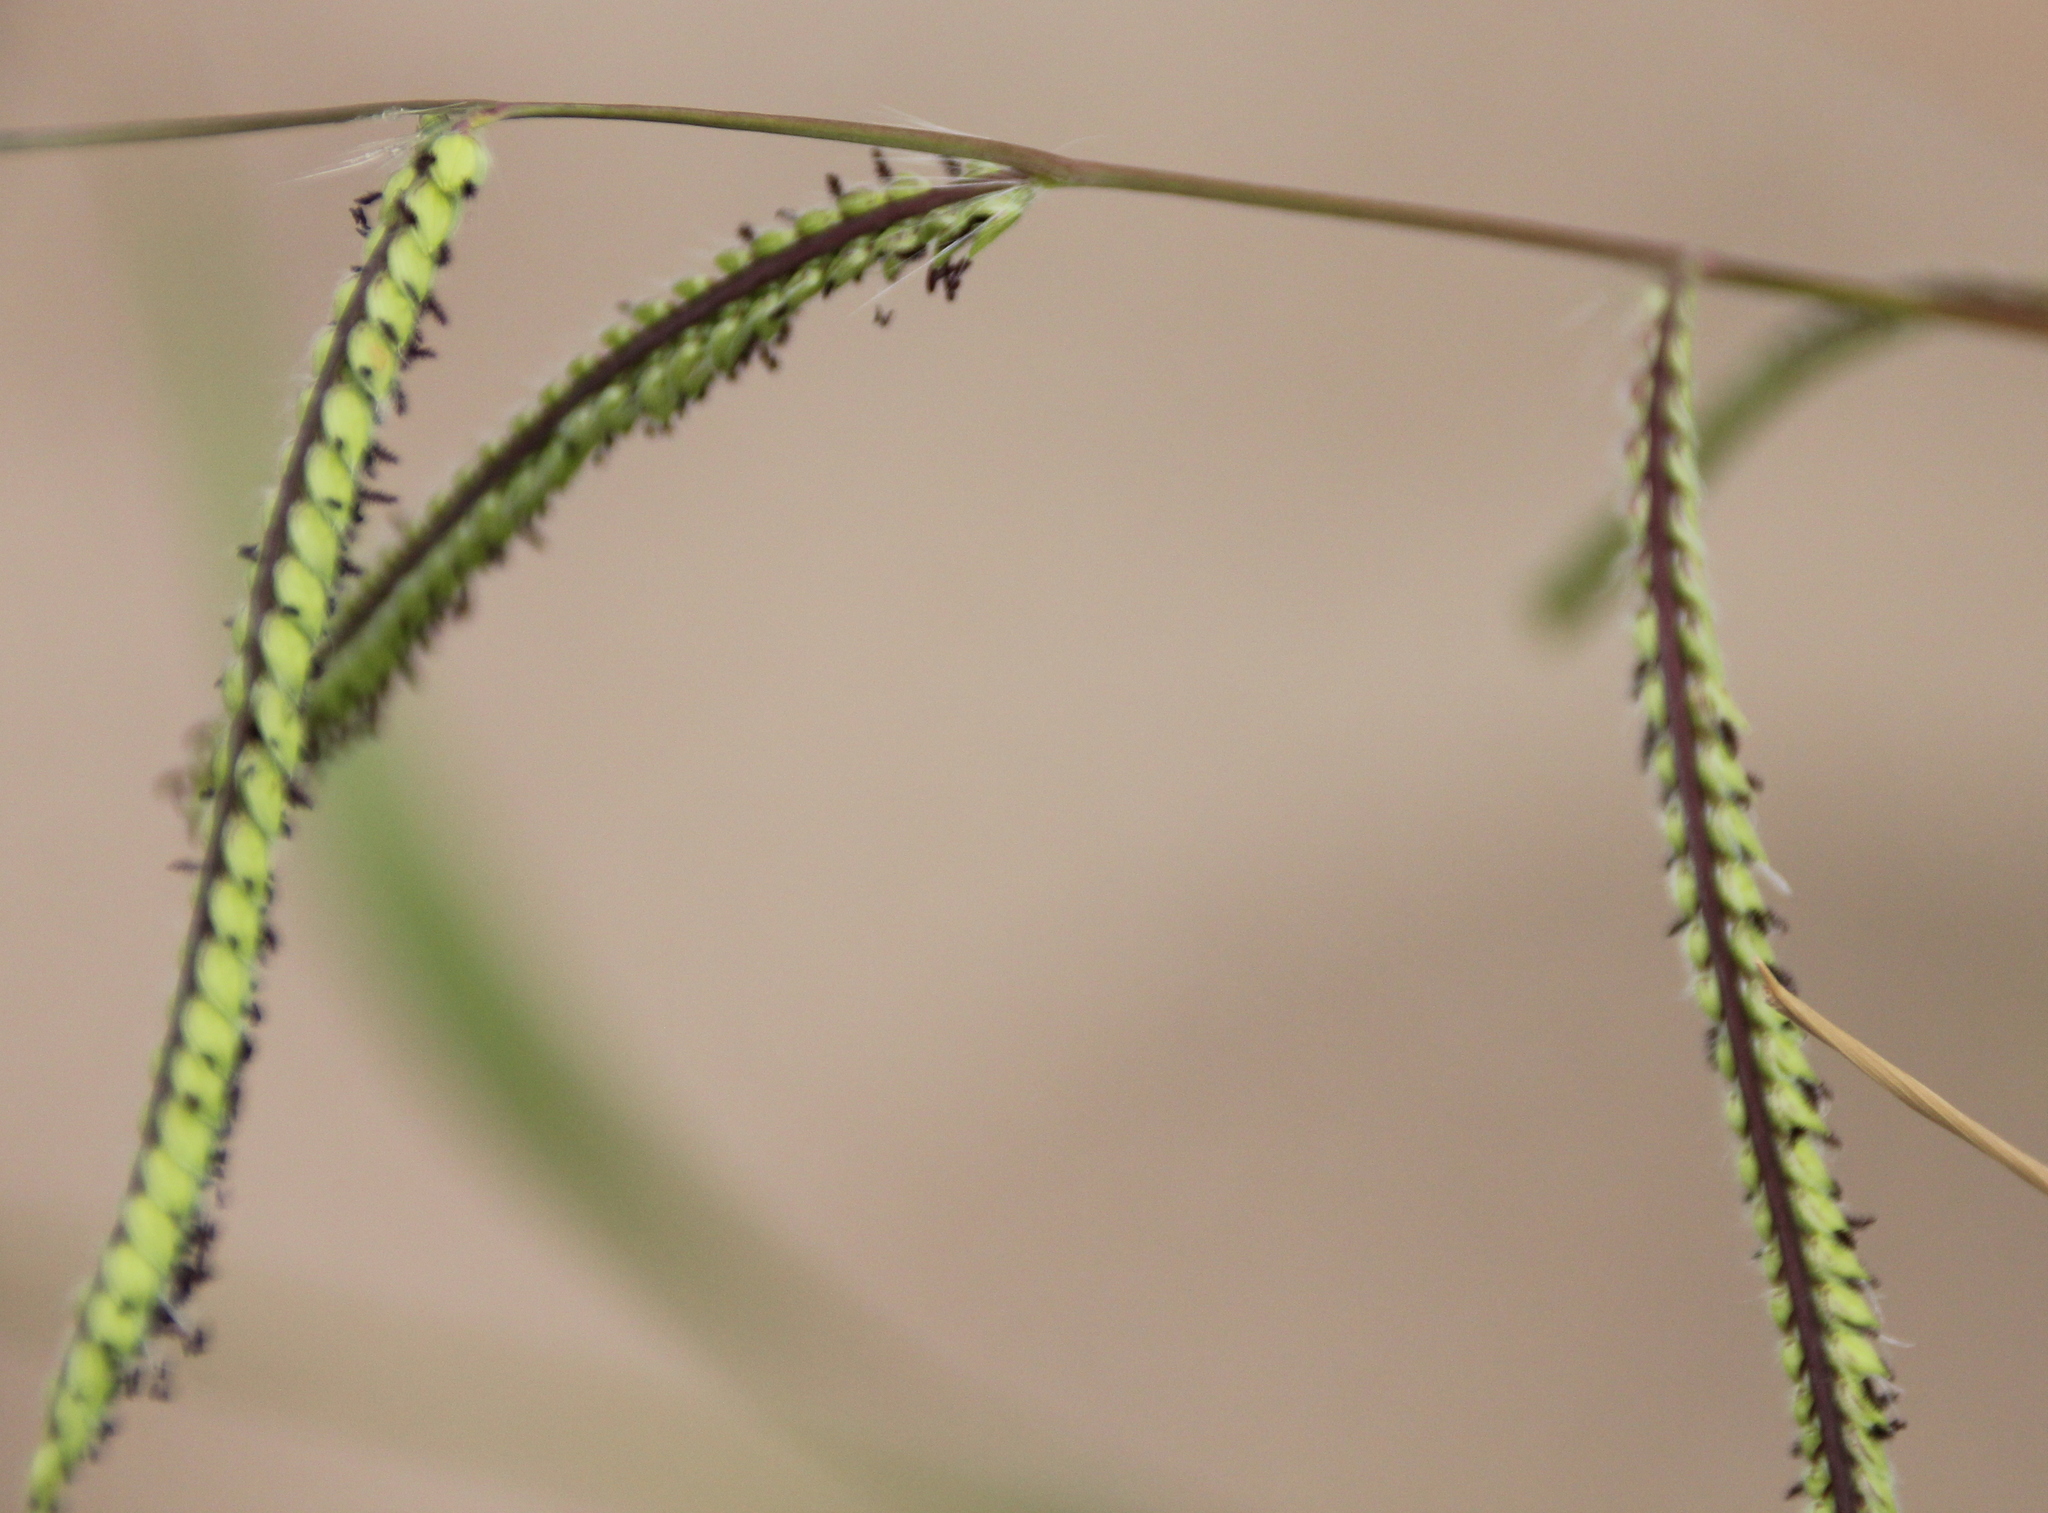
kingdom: Plantae
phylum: Tracheophyta
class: Liliopsida
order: Poales
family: Poaceae
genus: Paspalum
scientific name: Paspalum dilatatum
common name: Dallisgrass
